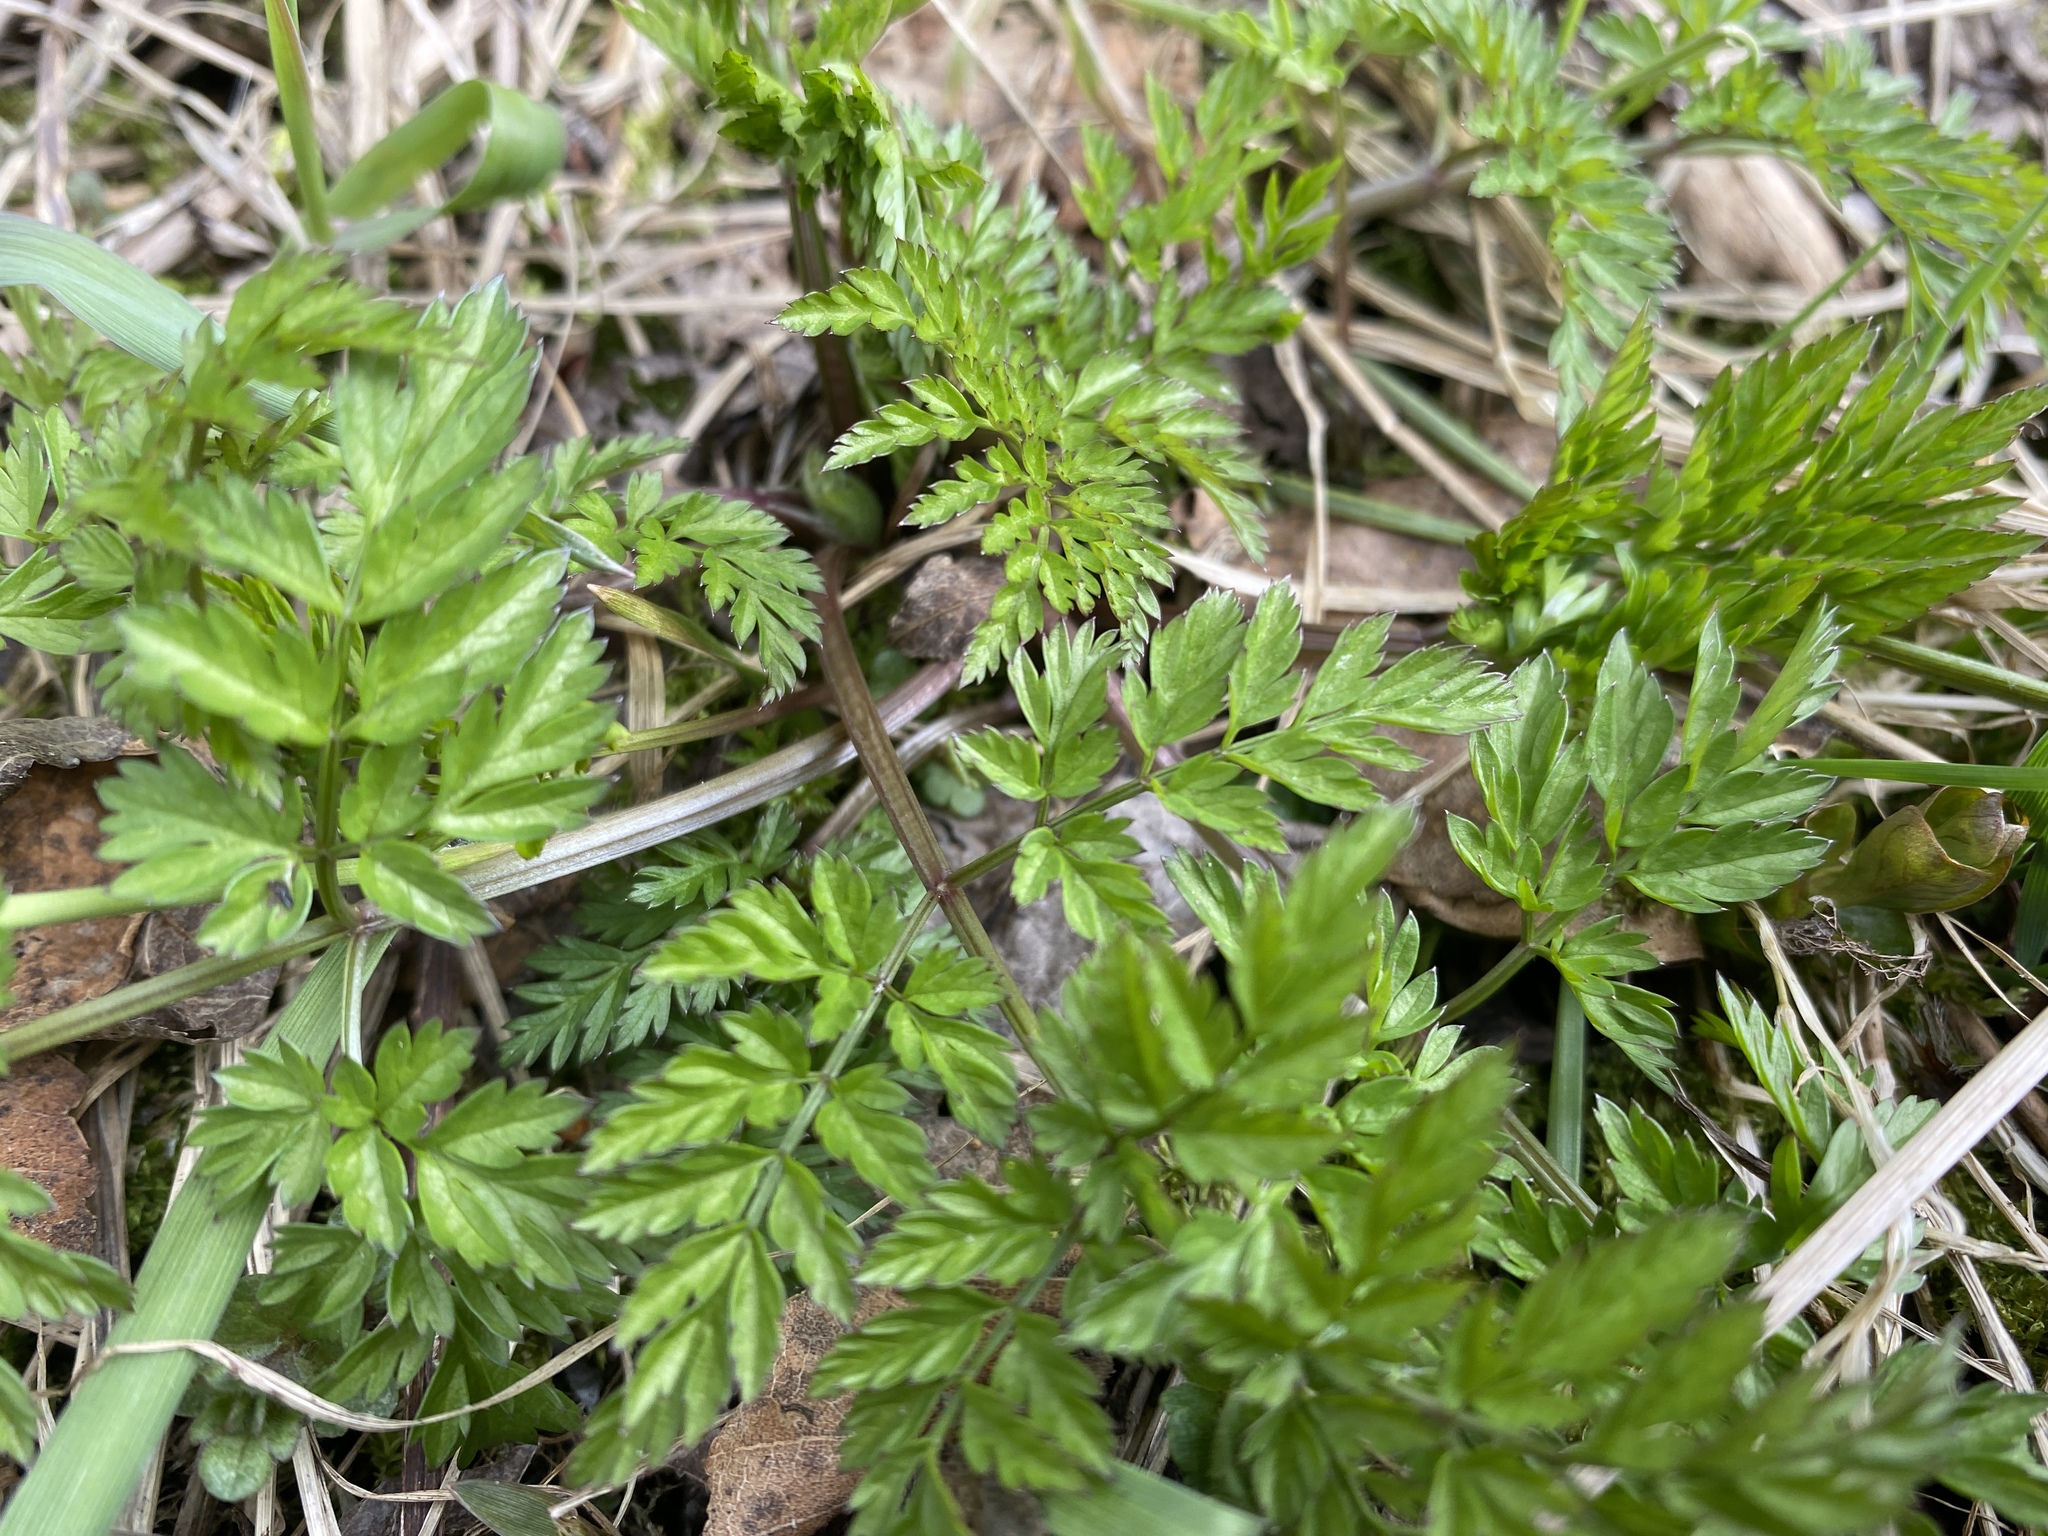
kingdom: Plantae
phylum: Tracheophyta
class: Magnoliopsida
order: Apiales
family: Apiaceae
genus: Anthriscus
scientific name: Anthriscus sylvestris
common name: Cow parsley
